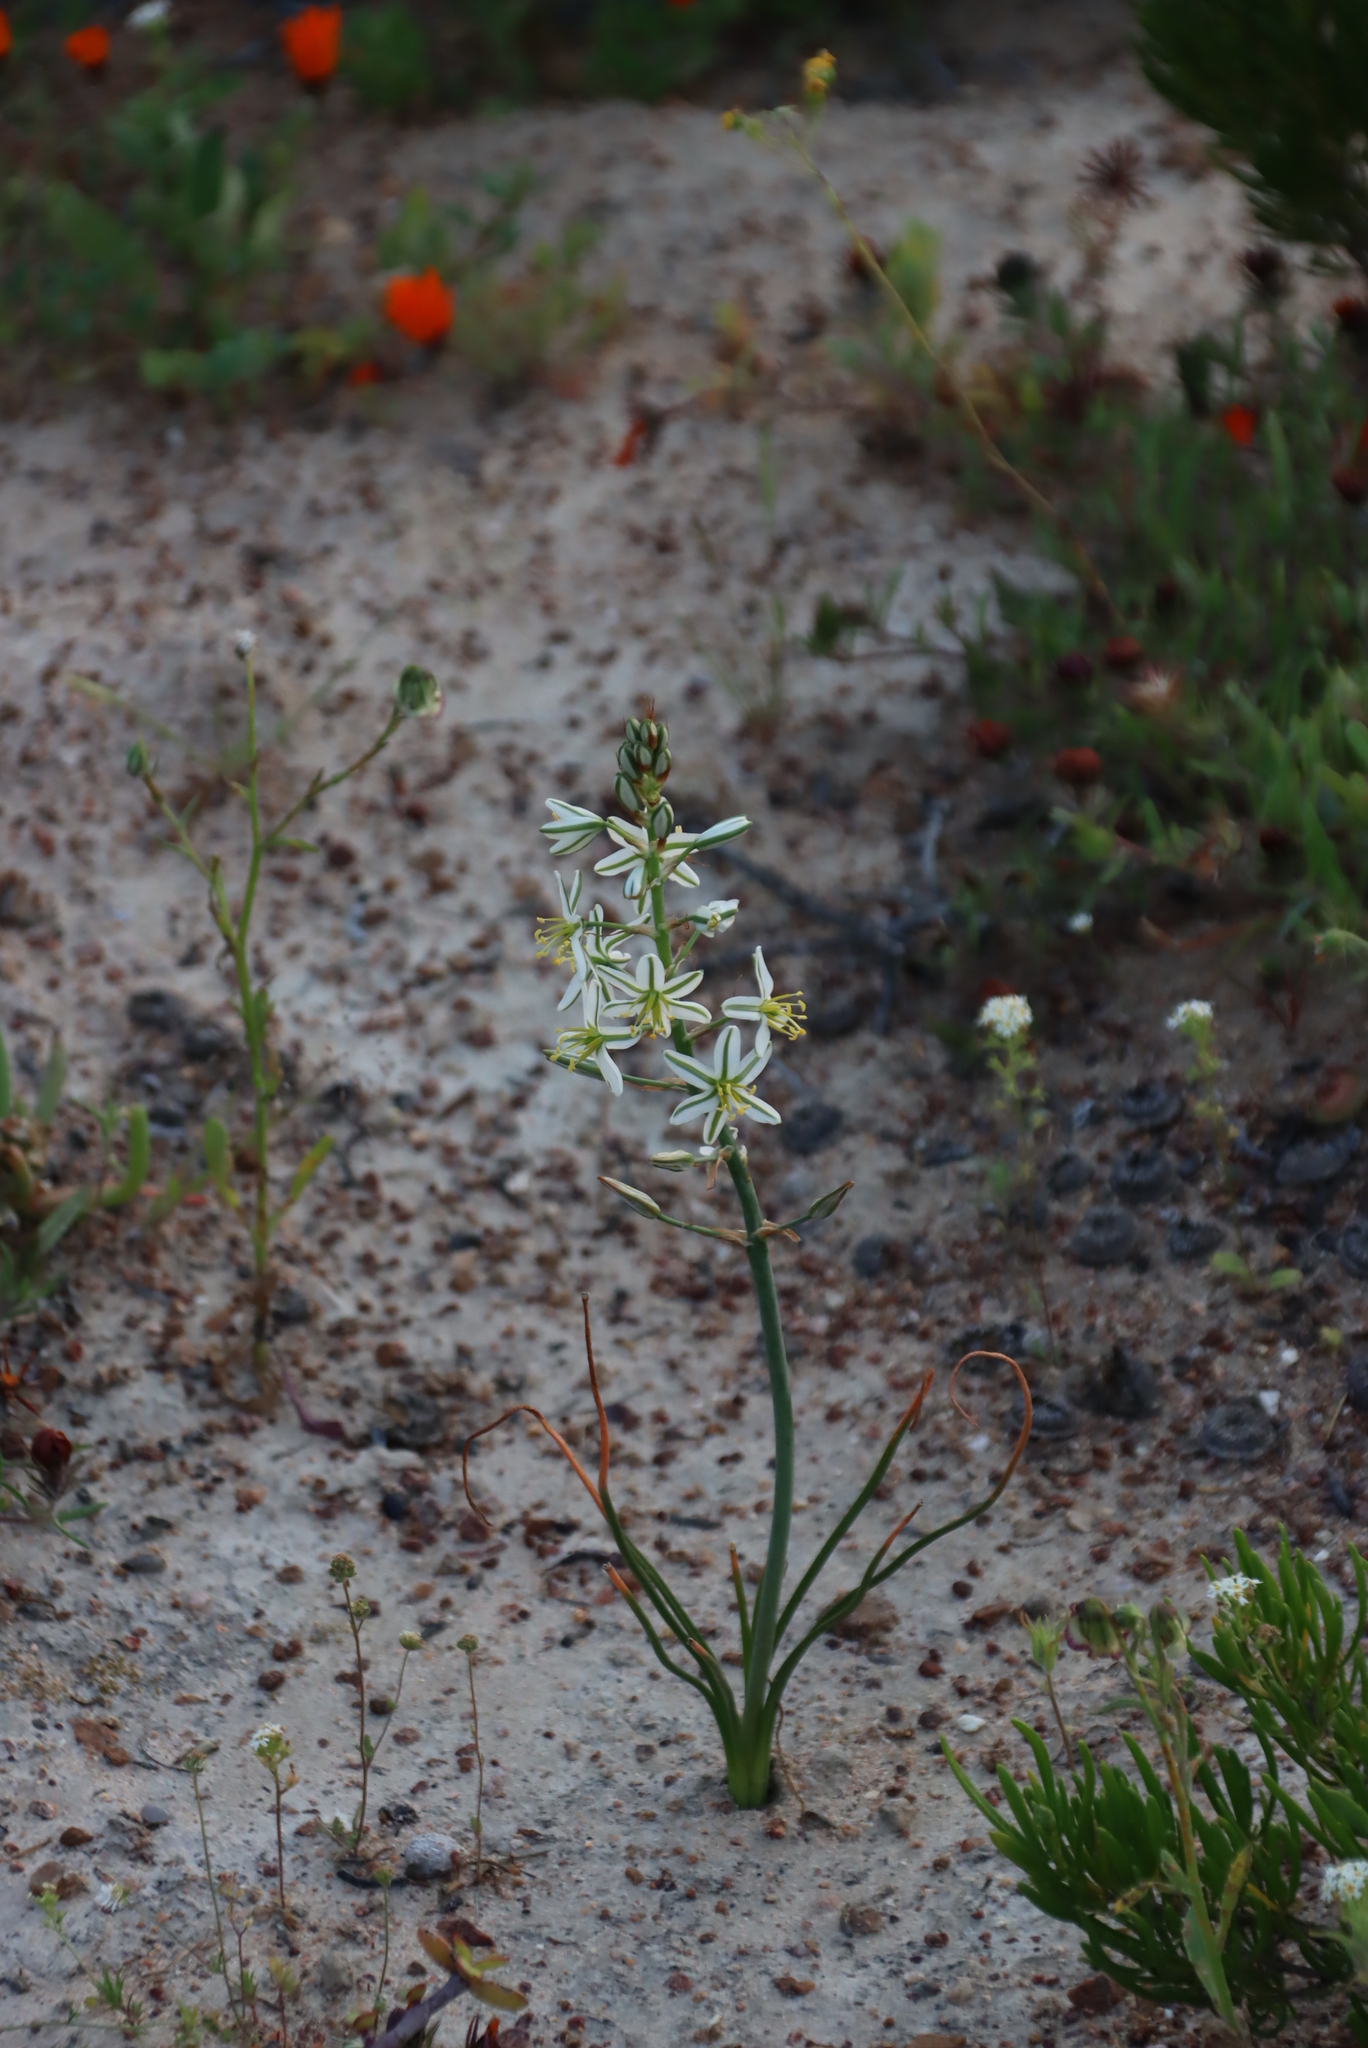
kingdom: Plantae
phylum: Tracheophyta
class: Liliopsida
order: Asparagales
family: Asparagaceae
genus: Albuca
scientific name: Albuca consanguinea
